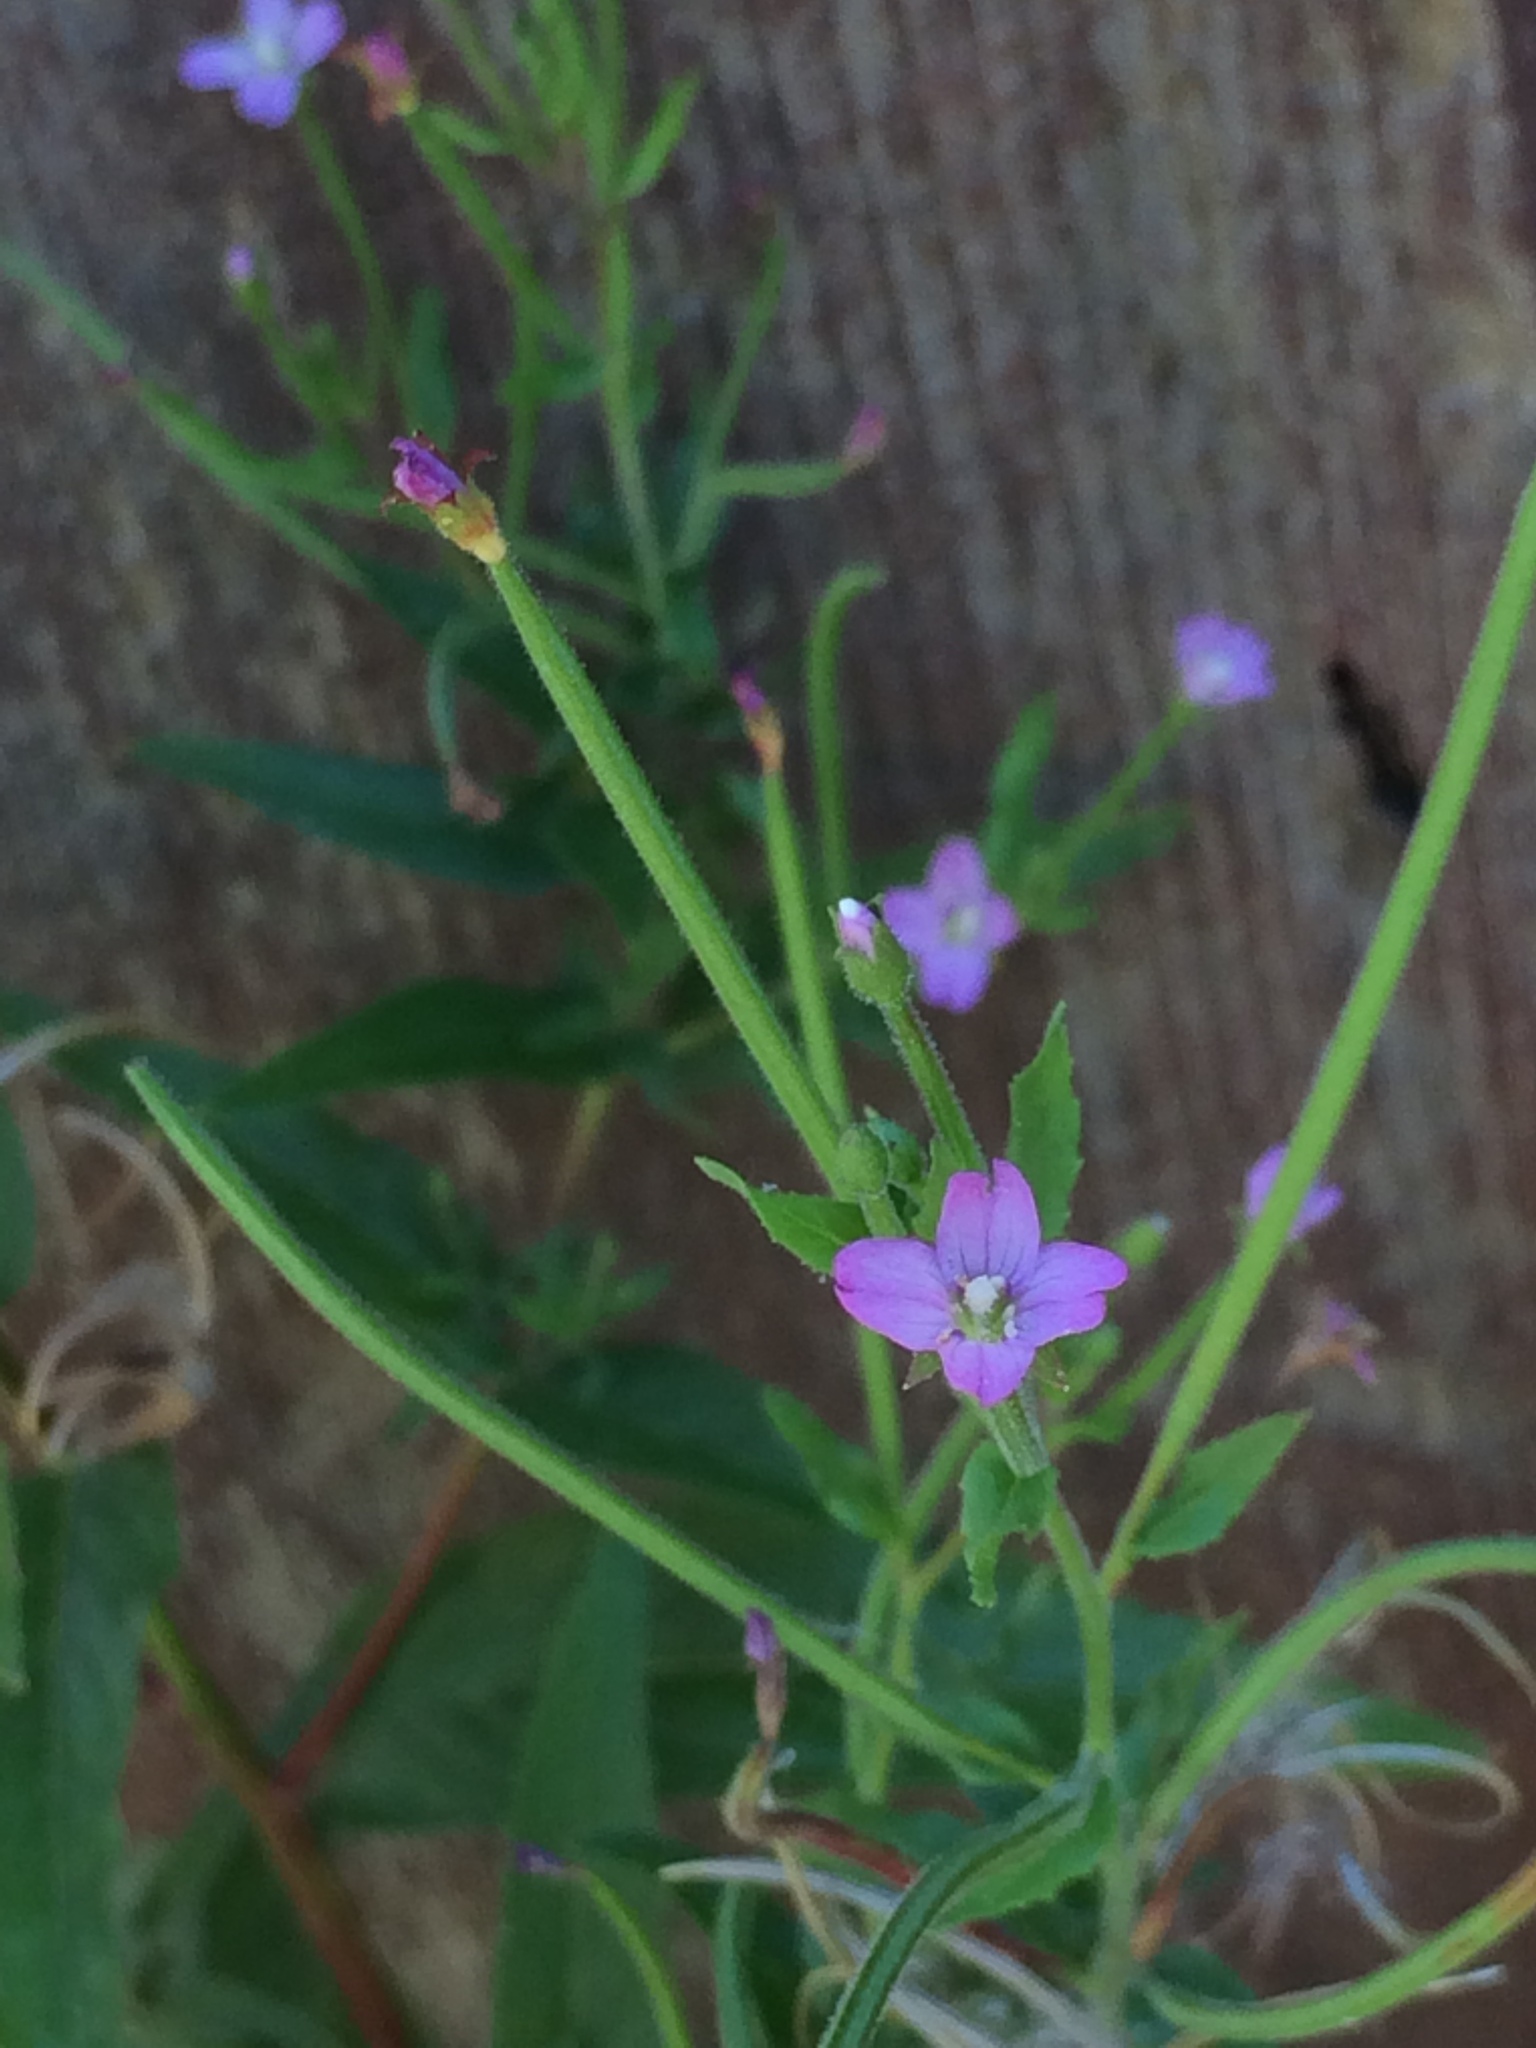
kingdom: Plantae
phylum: Tracheophyta
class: Magnoliopsida
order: Myrtales
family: Onagraceae
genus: Epilobium
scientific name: Epilobium ciliatum
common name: American willowherb
